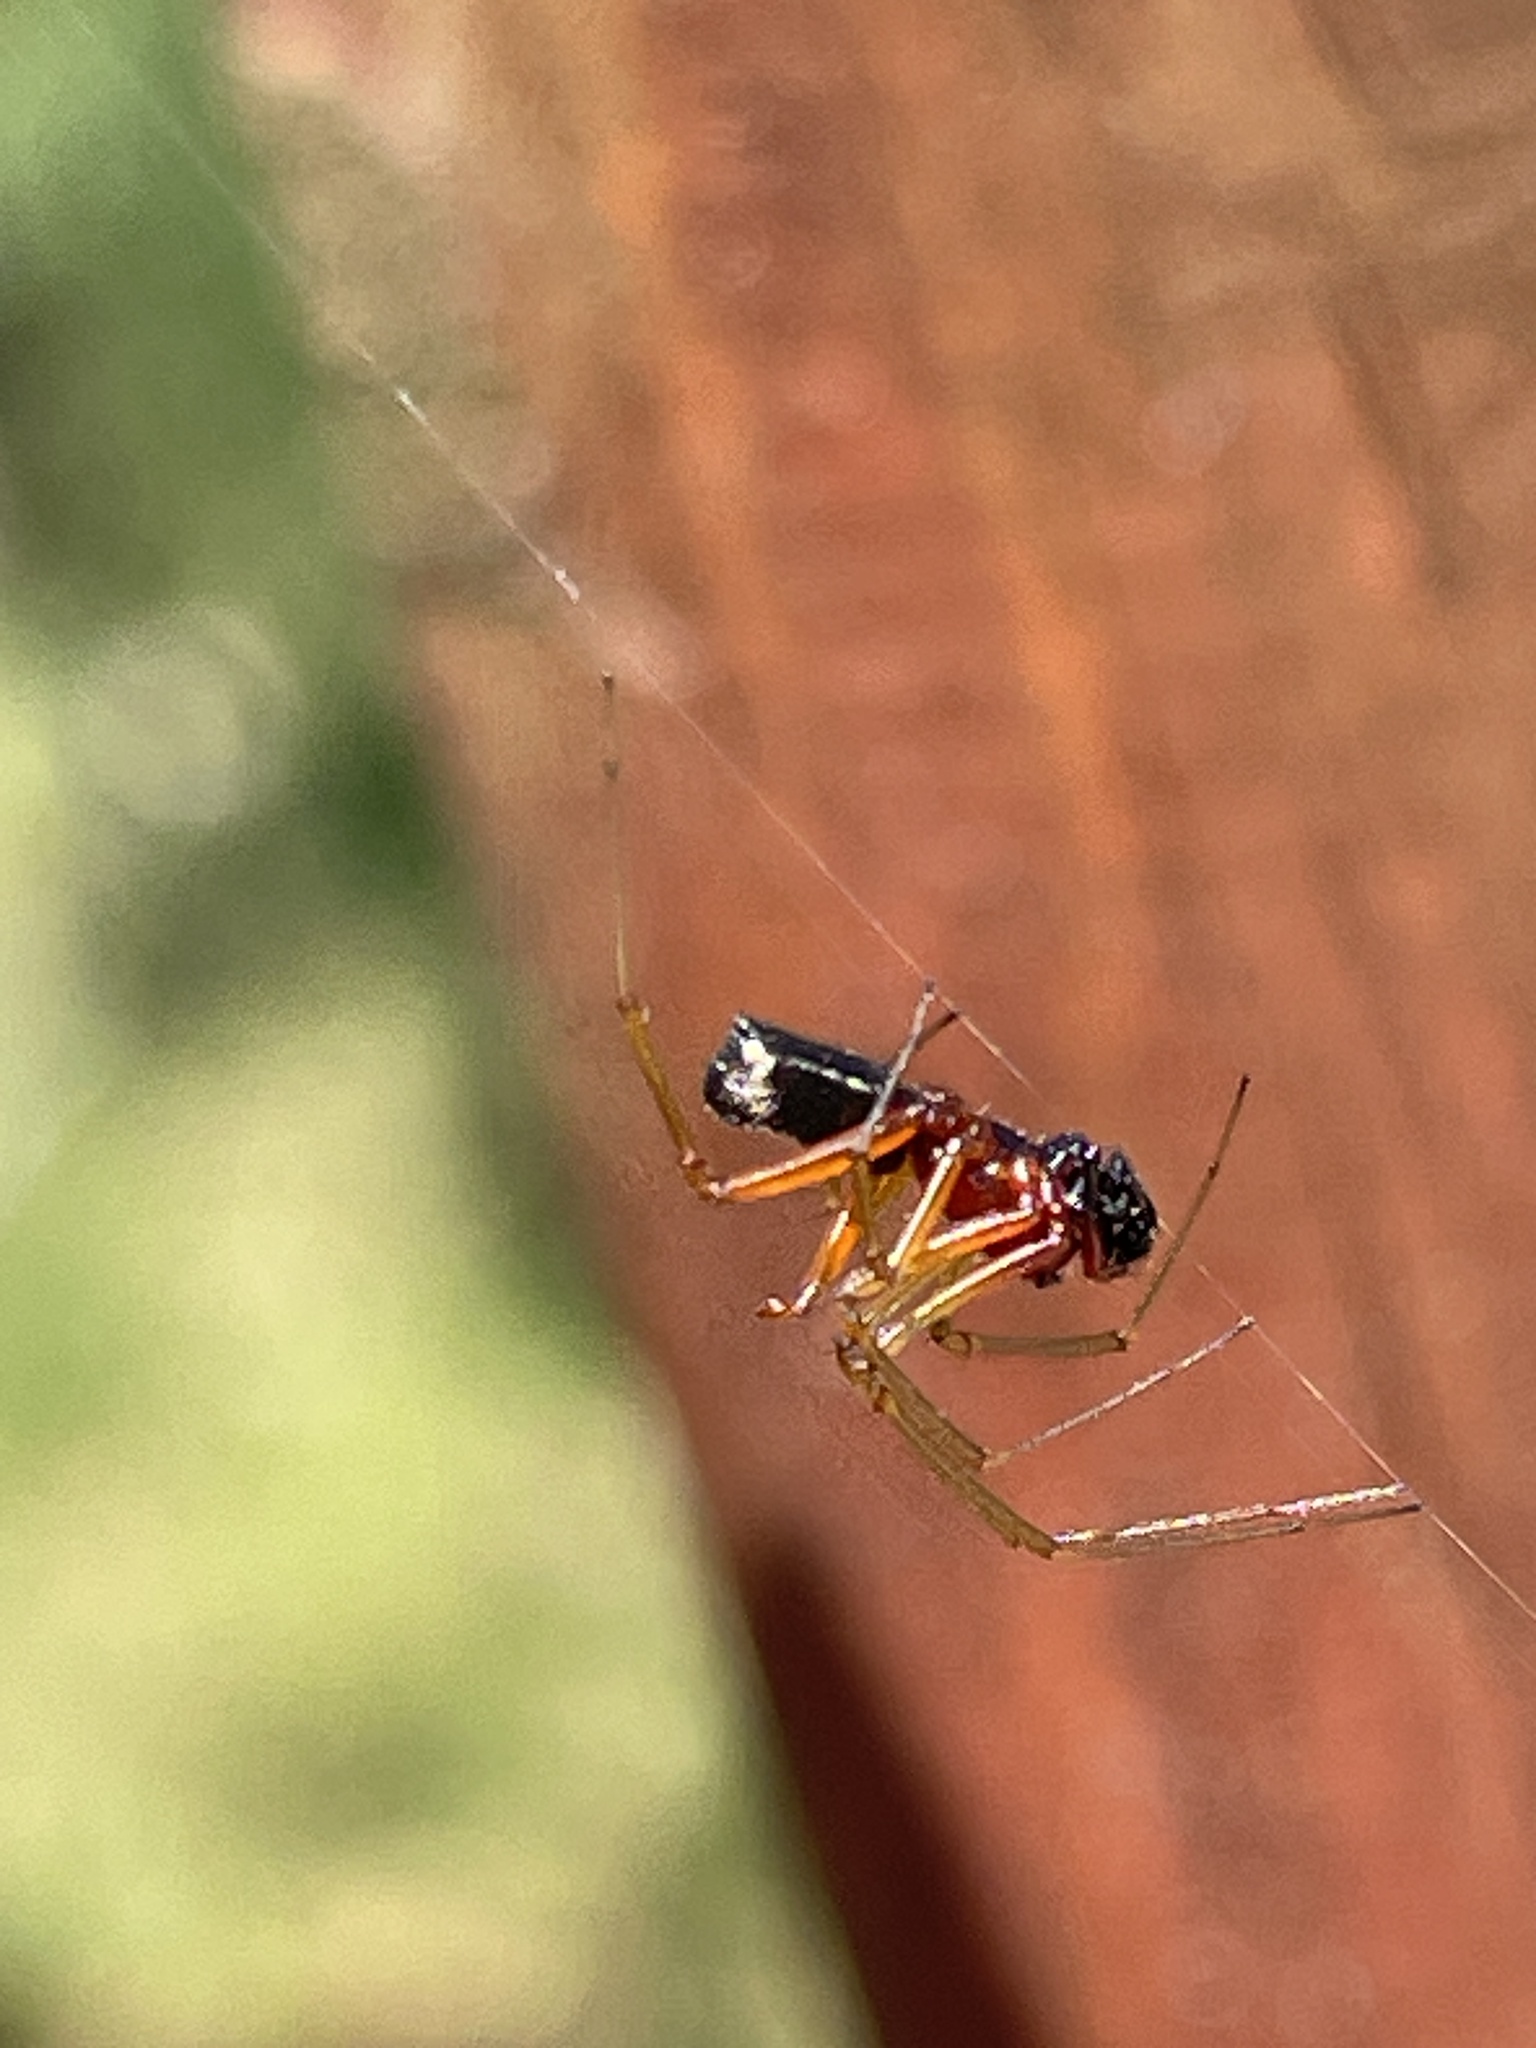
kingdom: Animalia
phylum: Arthropoda
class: Arachnida
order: Araneae
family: Linyphiidae
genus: Frontinellina
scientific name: Frontinellina frutetorum
